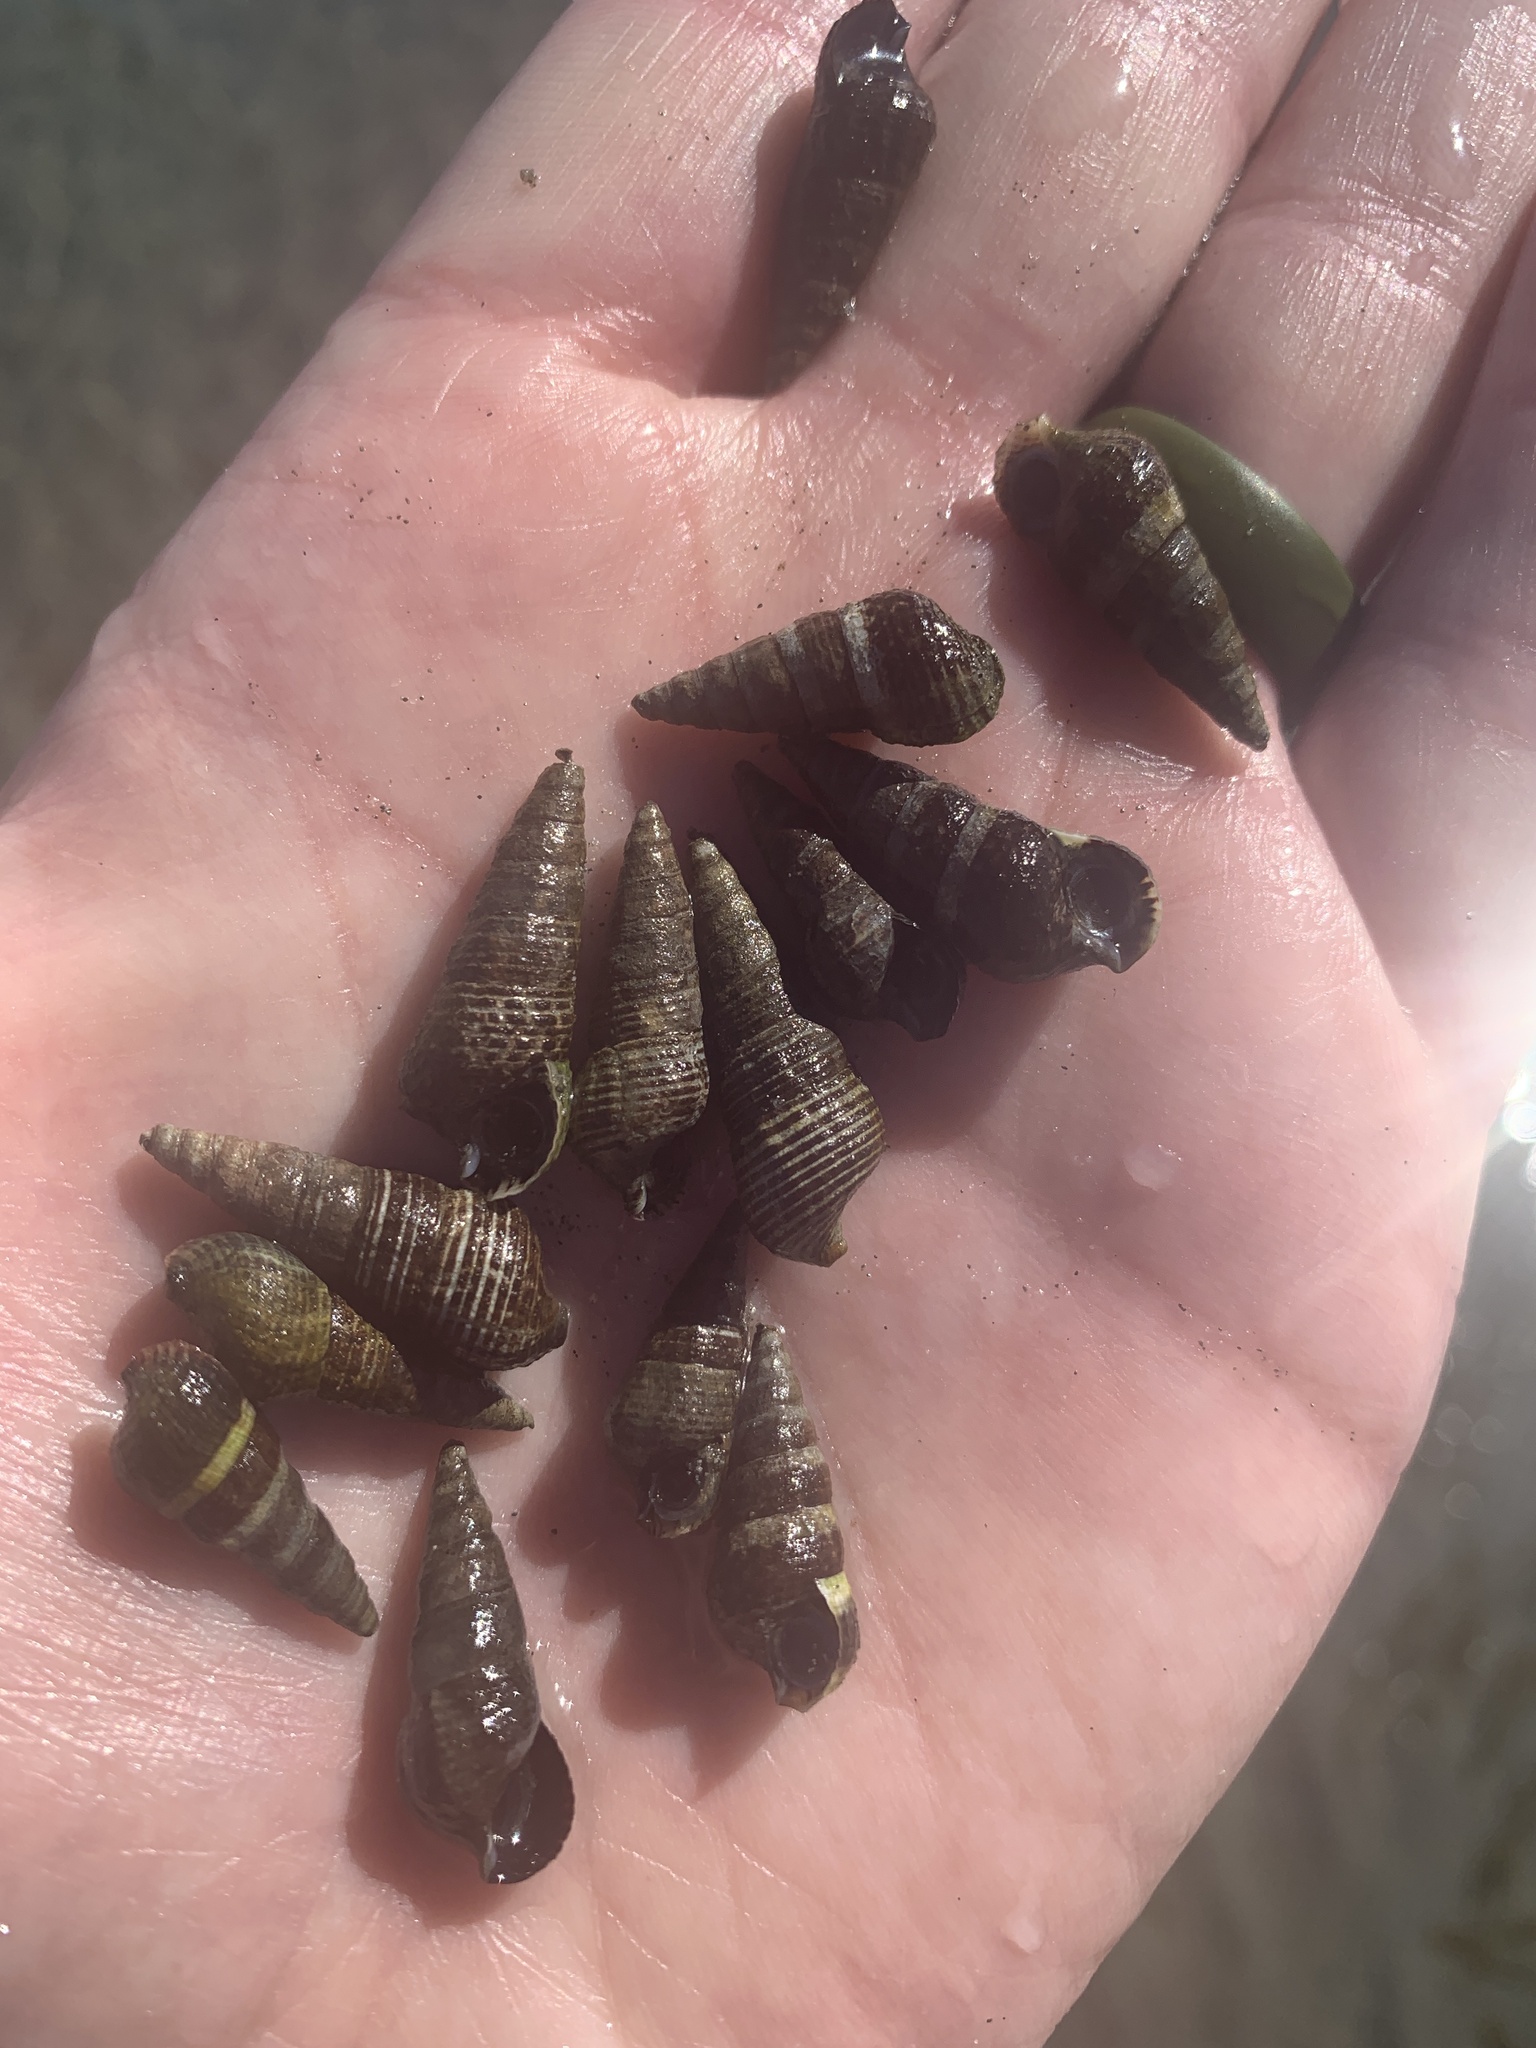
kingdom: Animalia
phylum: Mollusca
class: Gastropoda
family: Batillariidae
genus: Batillaria
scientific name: Batillaria attramentaria
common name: Japanese false cerith
